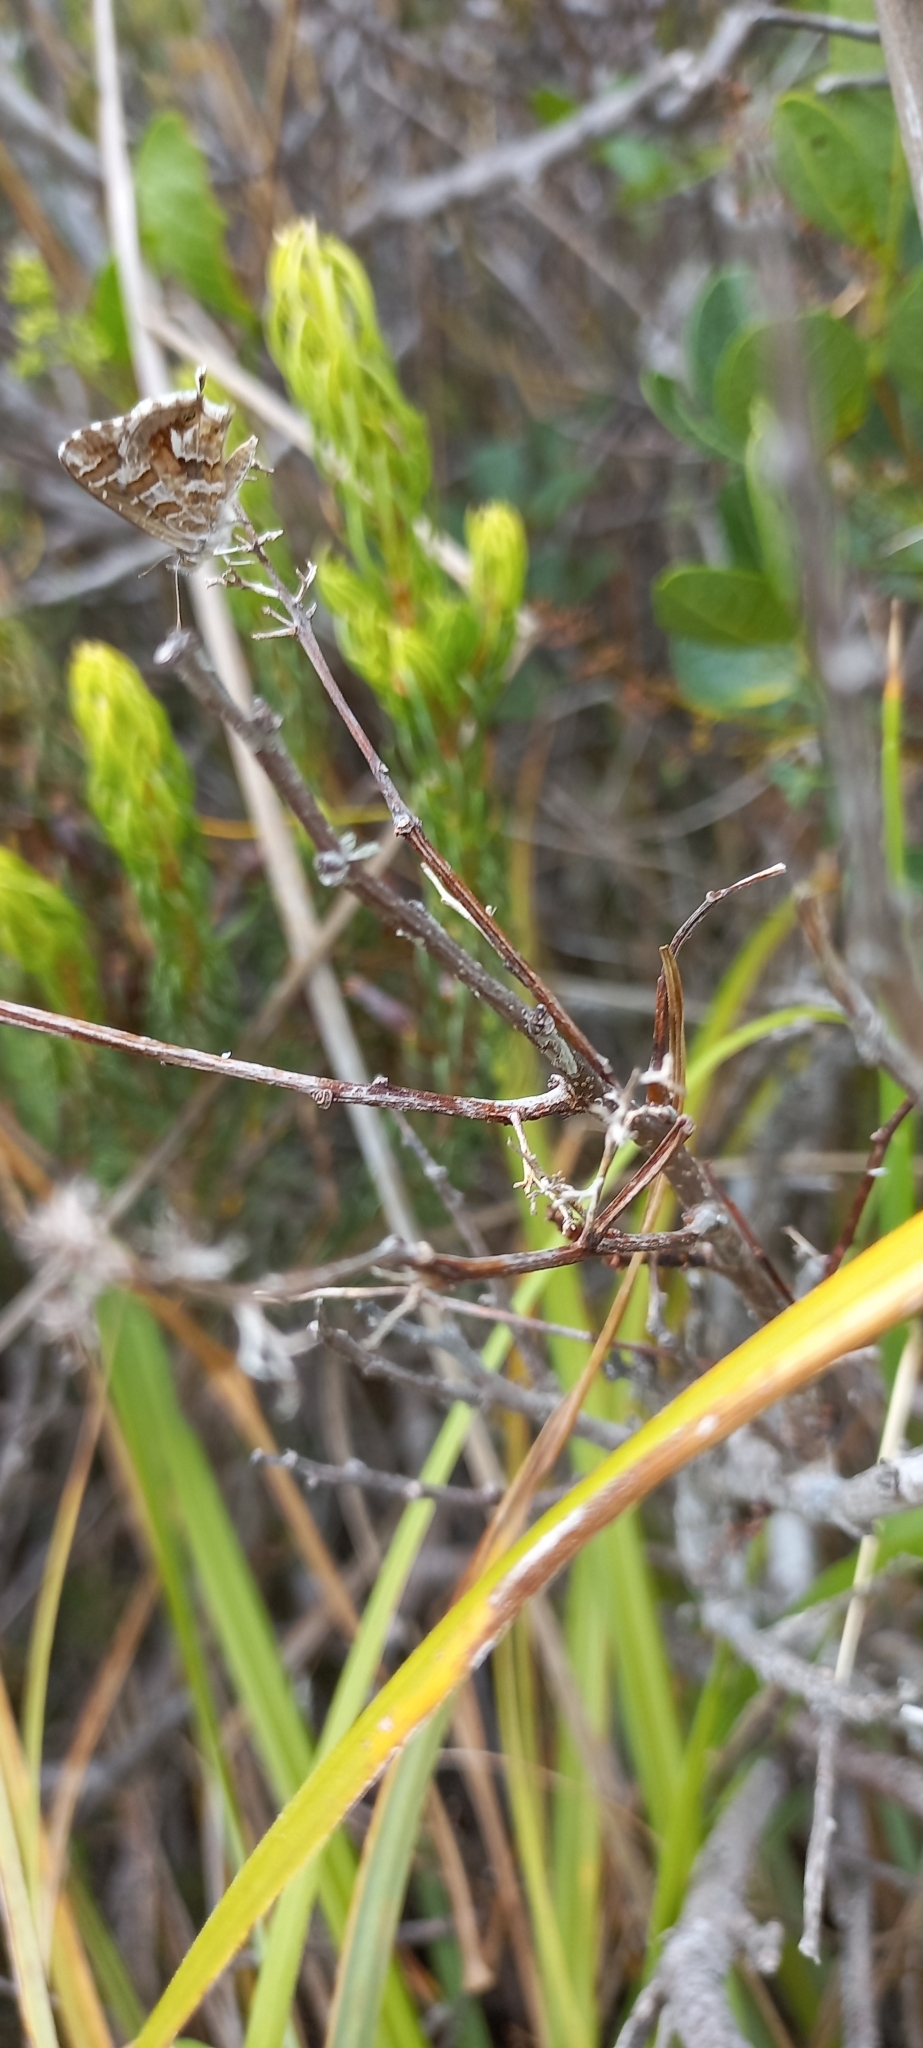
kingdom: Animalia
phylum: Arthropoda
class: Insecta
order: Lepidoptera
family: Lycaenidae
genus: Cacyreus
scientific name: Cacyreus fracta
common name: Water bronze
